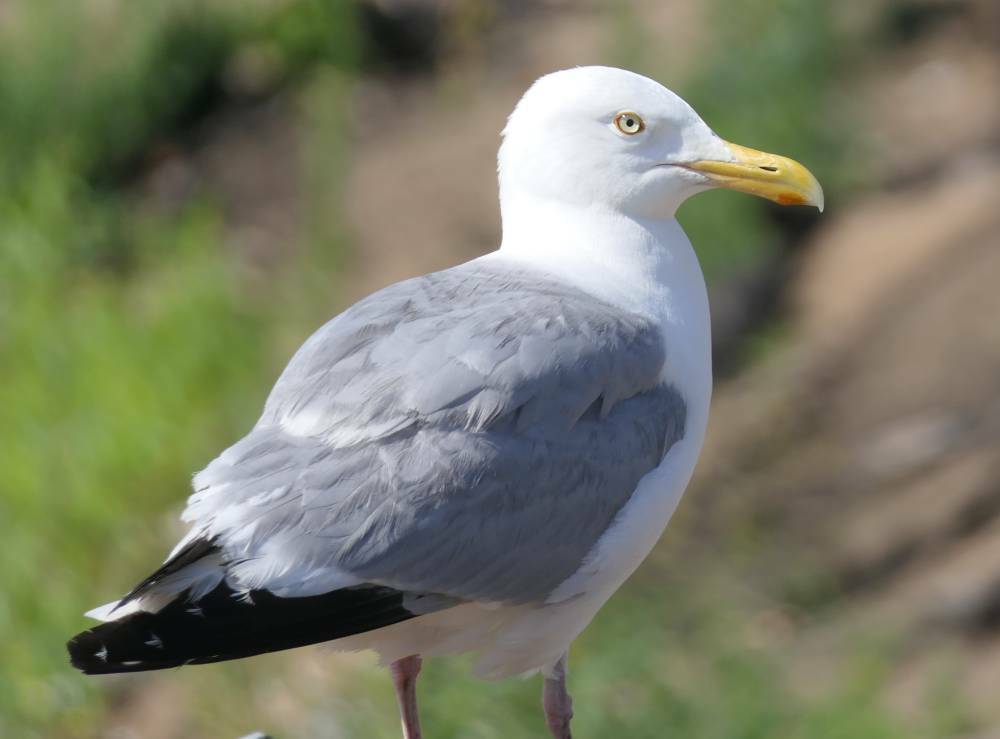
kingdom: Animalia
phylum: Chordata
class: Aves
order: Charadriiformes
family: Laridae
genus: Larus
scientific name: Larus argentatus
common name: Herring gull
